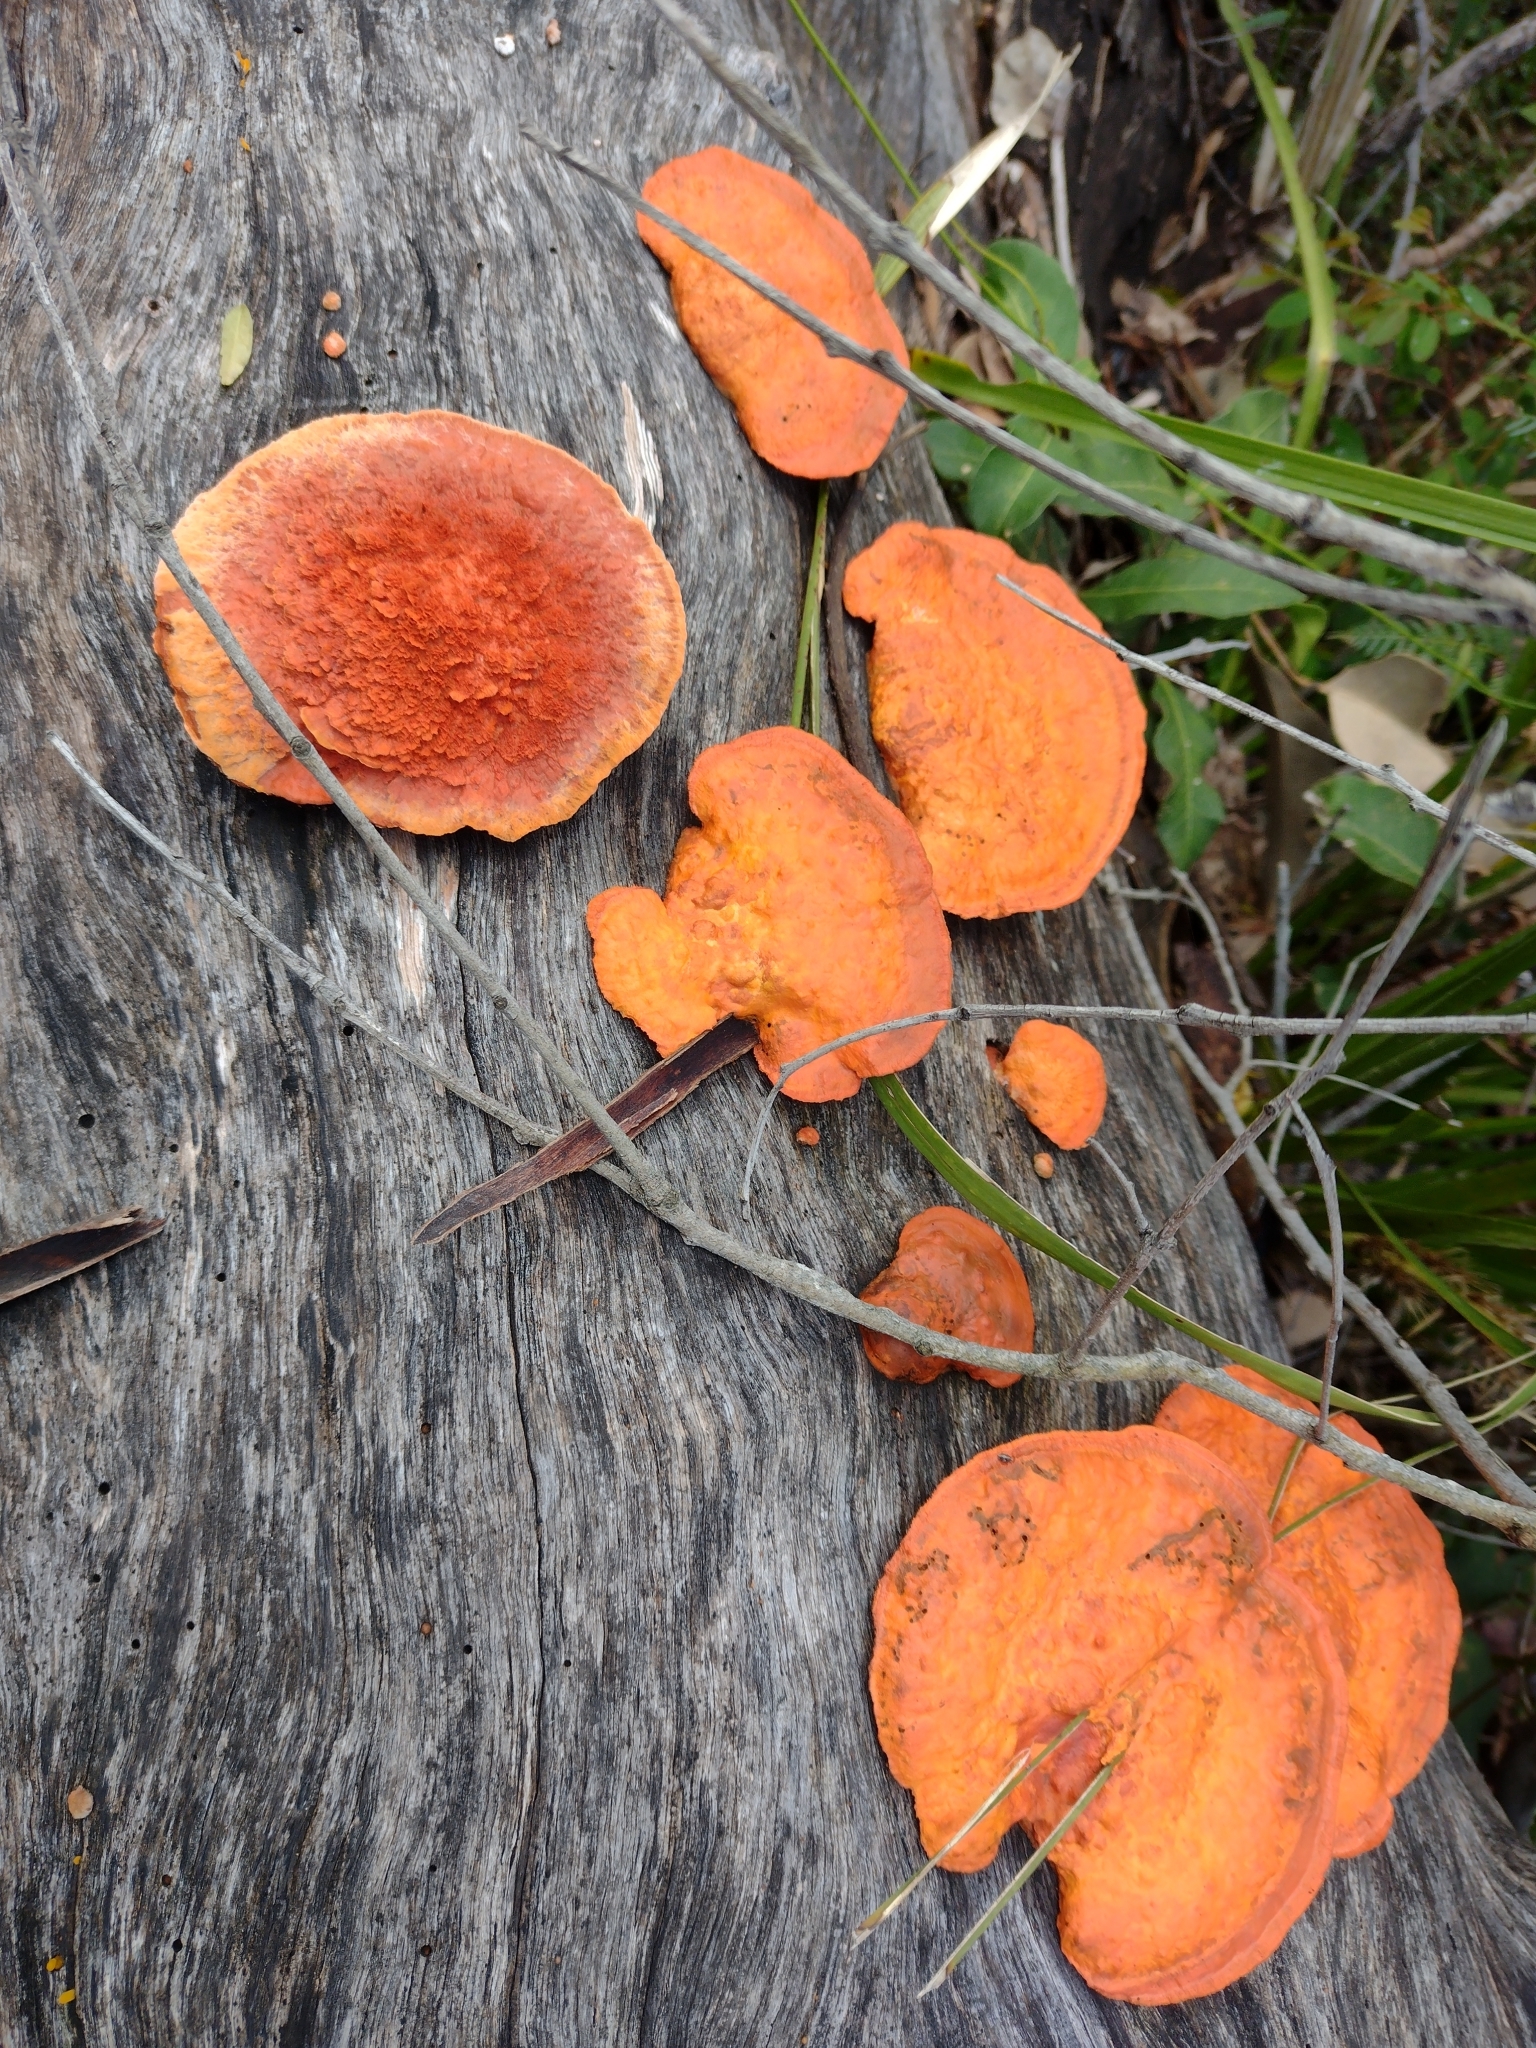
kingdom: Fungi
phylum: Basidiomycota
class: Agaricomycetes
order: Polyporales
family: Polyporaceae
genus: Trametes
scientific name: Trametes coccinea
